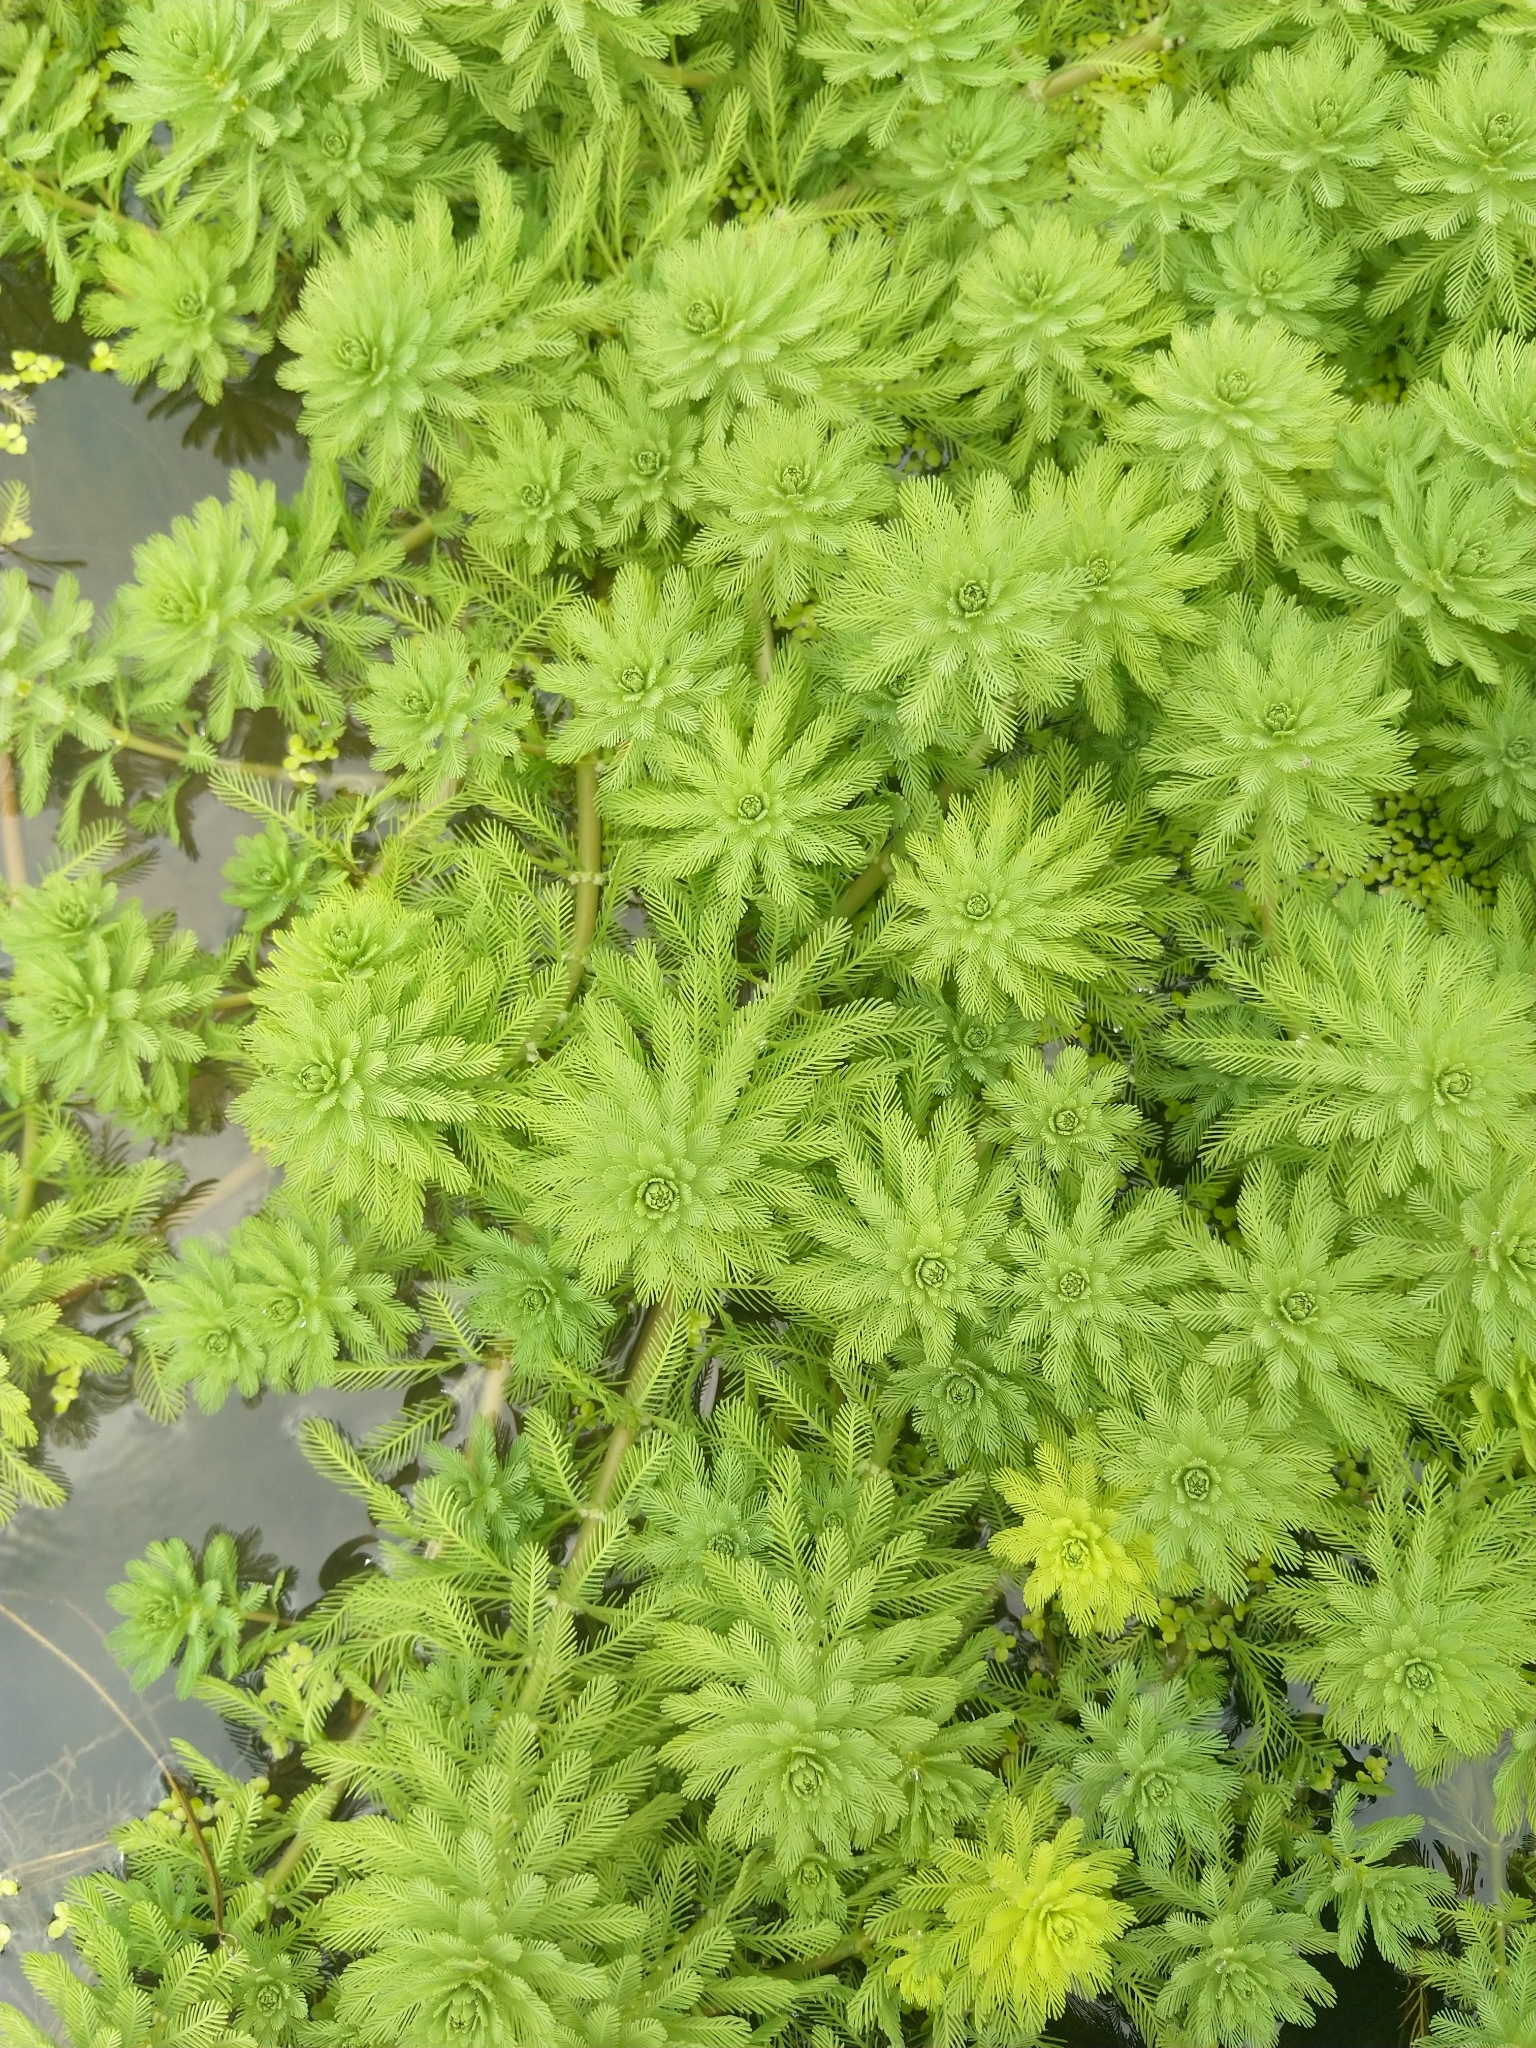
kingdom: Plantae
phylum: Tracheophyta
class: Magnoliopsida
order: Saxifragales
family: Haloragaceae
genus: Myriophyllum
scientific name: Myriophyllum aquaticum
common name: Parrot's feather
